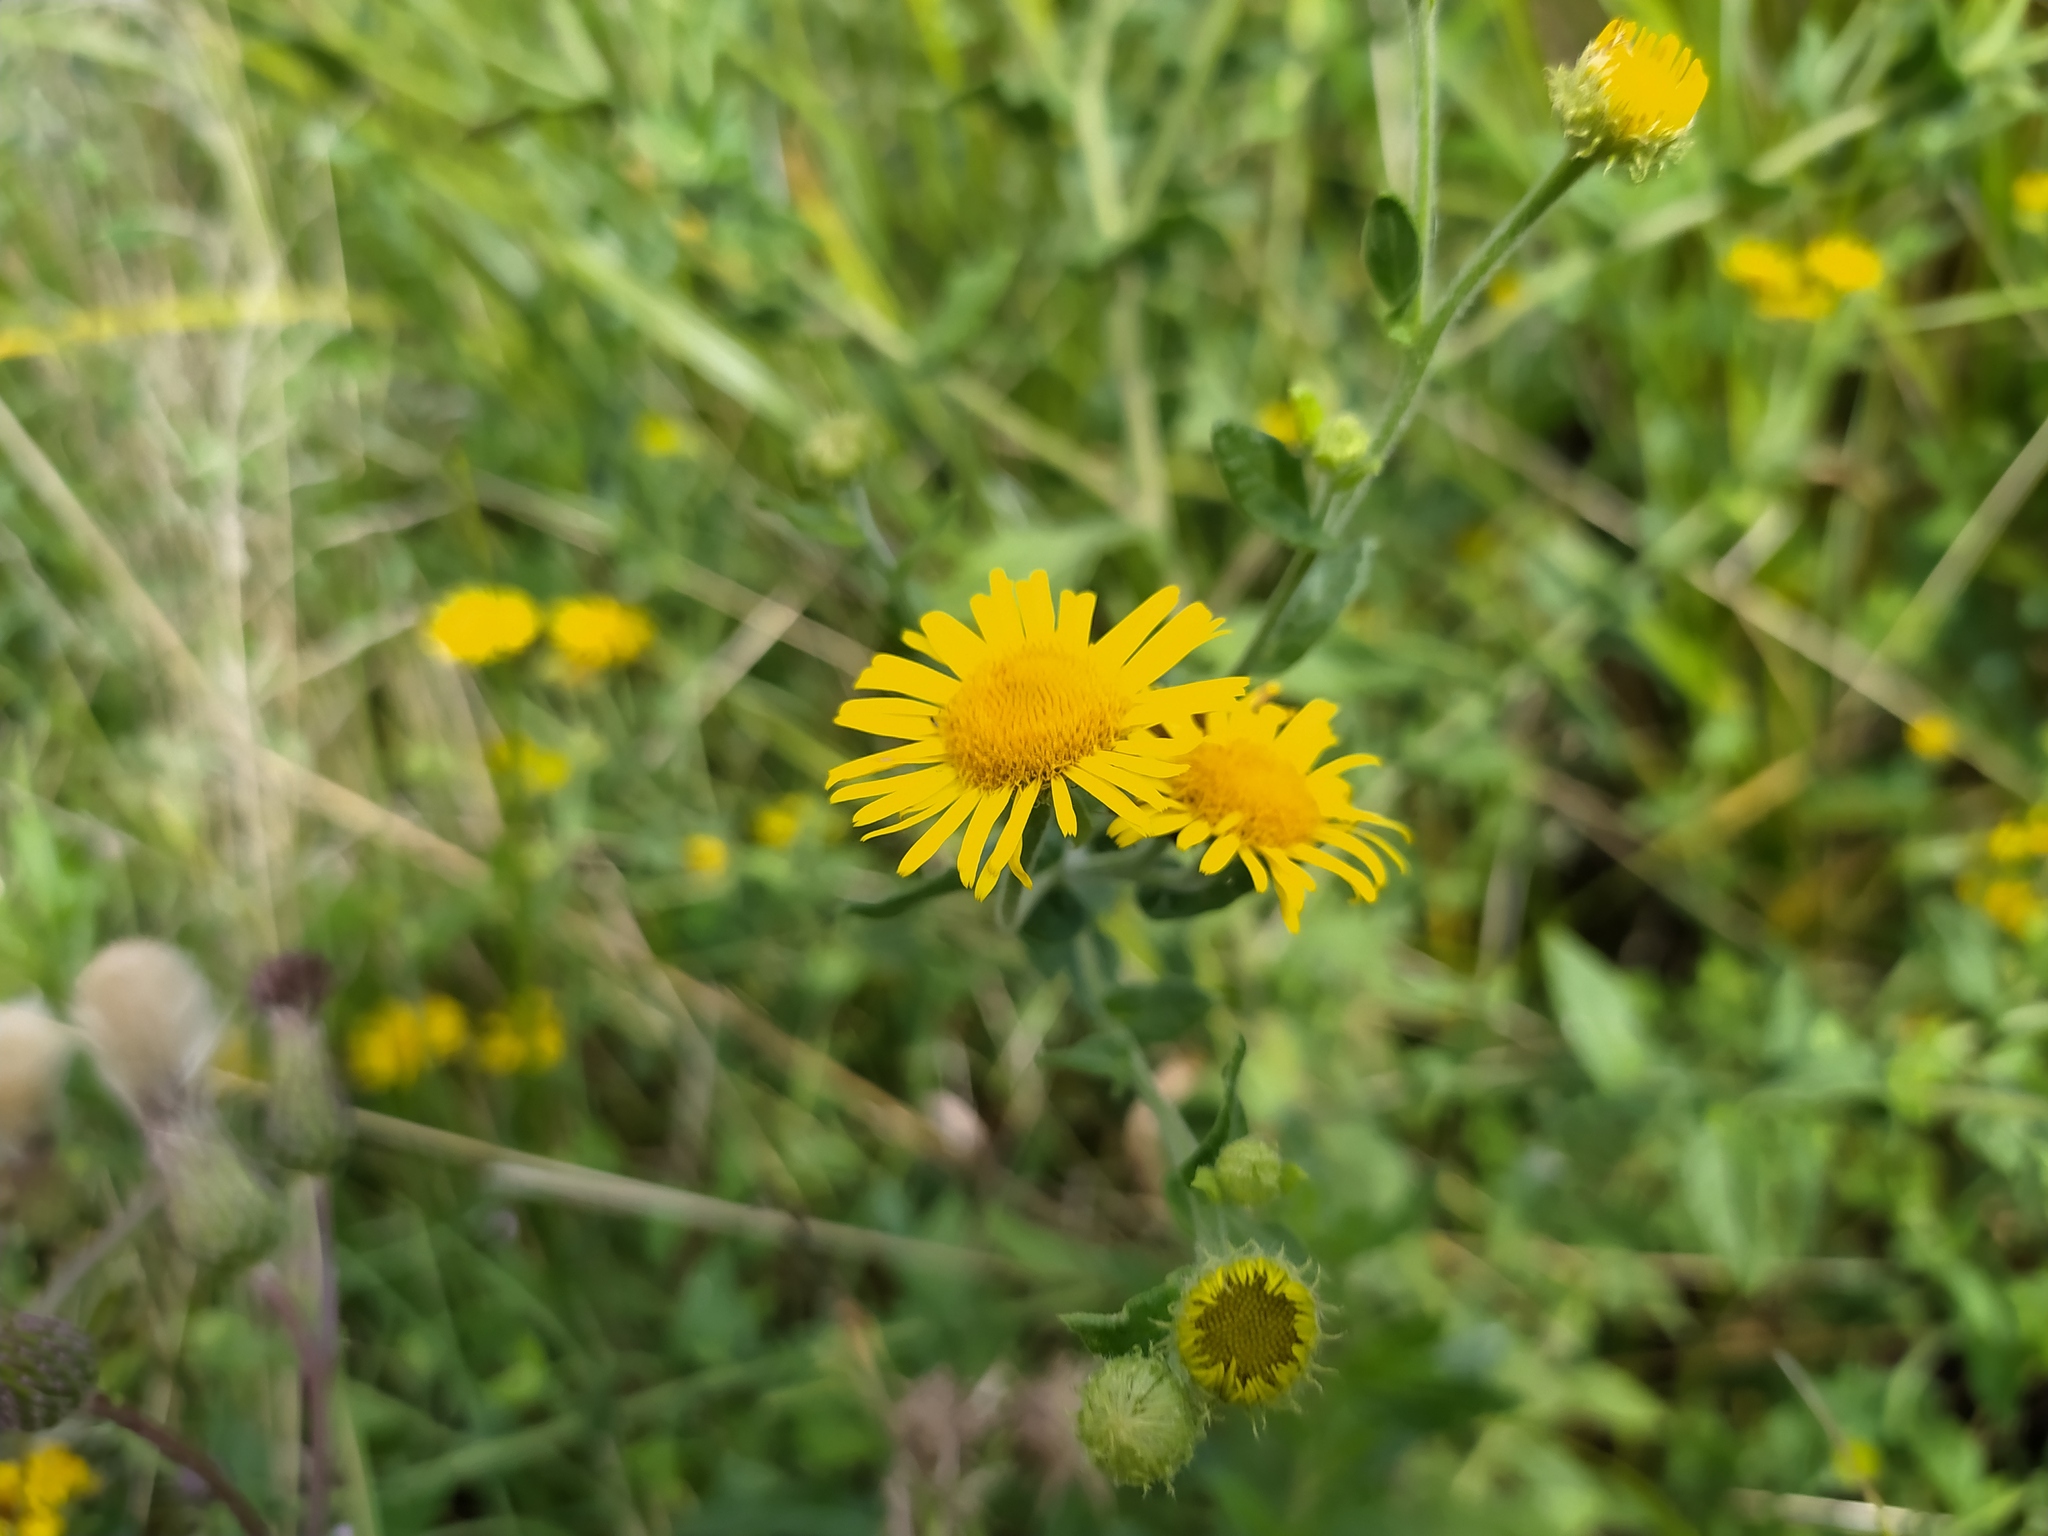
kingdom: Plantae
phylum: Tracheophyta
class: Magnoliopsida
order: Asterales
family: Asteraceae
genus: Pulicaria
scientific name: Pulicaria dysenterica
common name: Common fleabane
